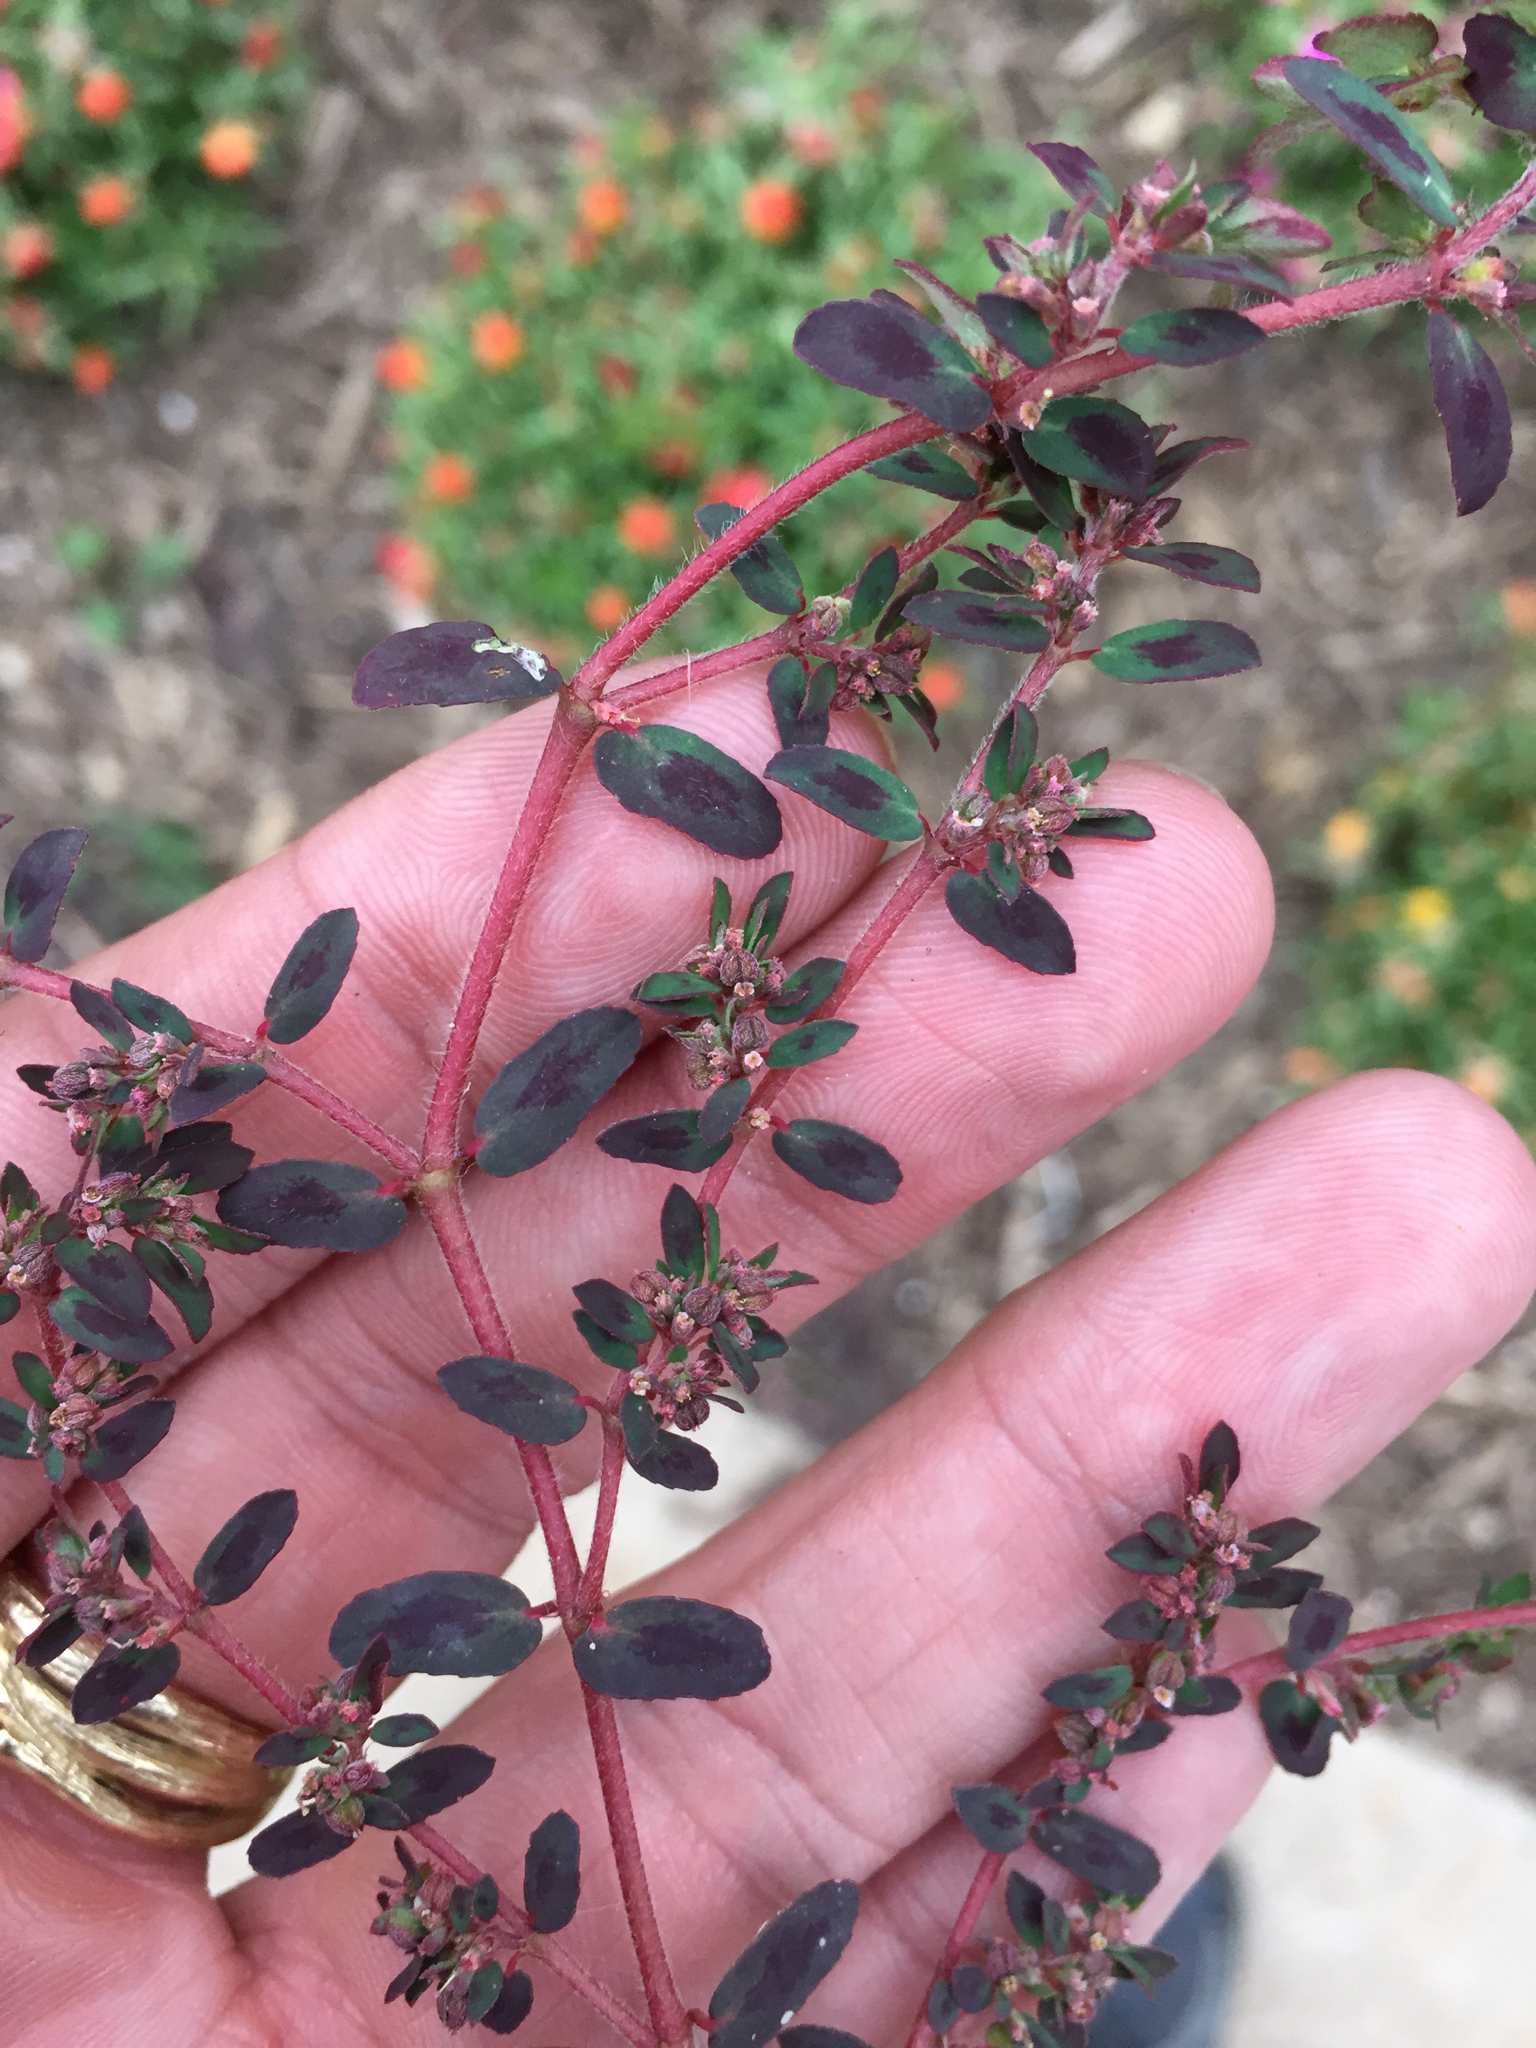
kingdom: Plantae
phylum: Tracheophyta
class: Magnoliopsida
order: Malpighiales
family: Euphorbiaceae
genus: Euphorbia
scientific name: Euphorbia maculata
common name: Spotted spurge
